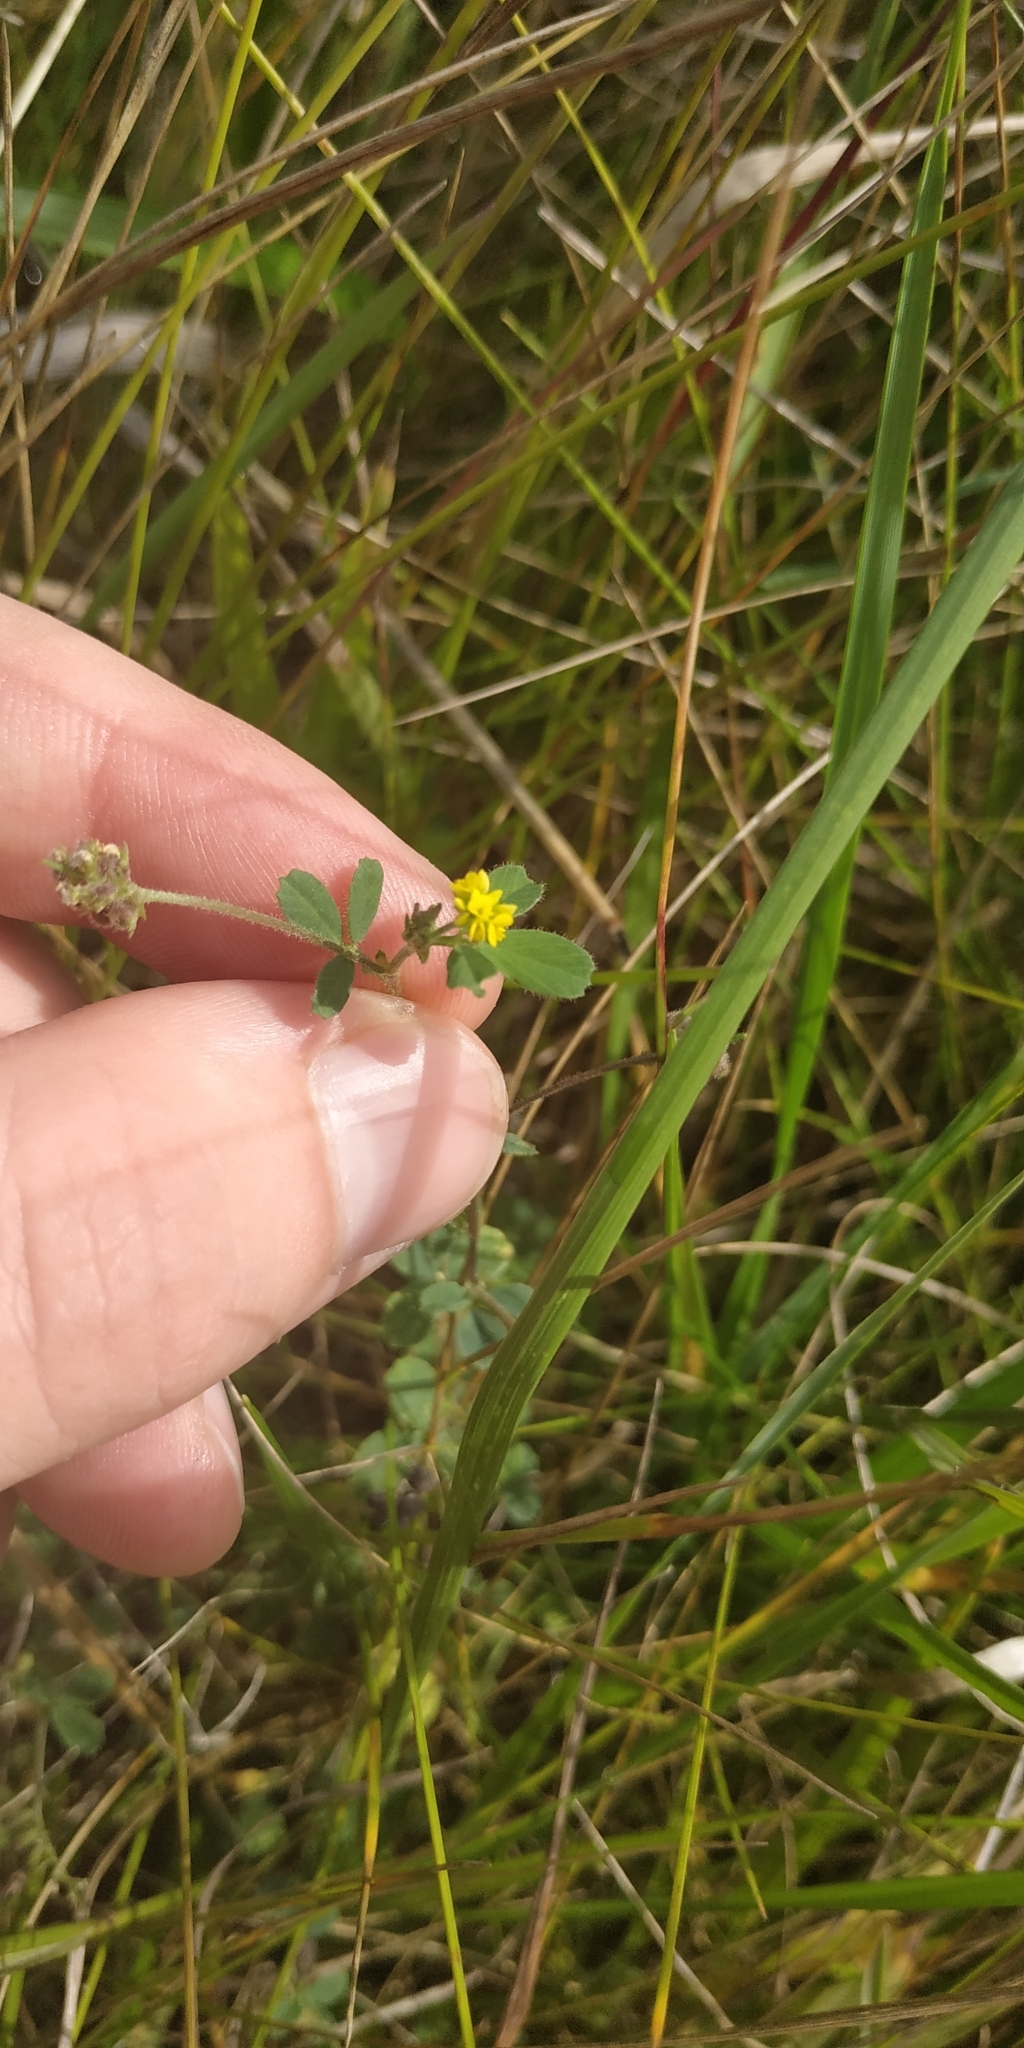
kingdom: Plantae
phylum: Tracheophyta
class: Magnoliopsida
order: Fabales
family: Fabaceae
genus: Medicago
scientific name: Medicago lupulina
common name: Black medick
